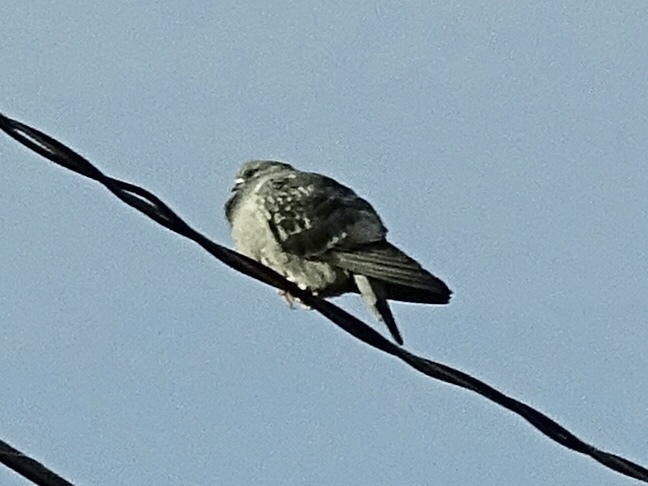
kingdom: Animalia
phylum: Chordata
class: Aves
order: Columbiformes
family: Columbidae
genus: Columba
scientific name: Columba livia
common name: Rock pigeon
